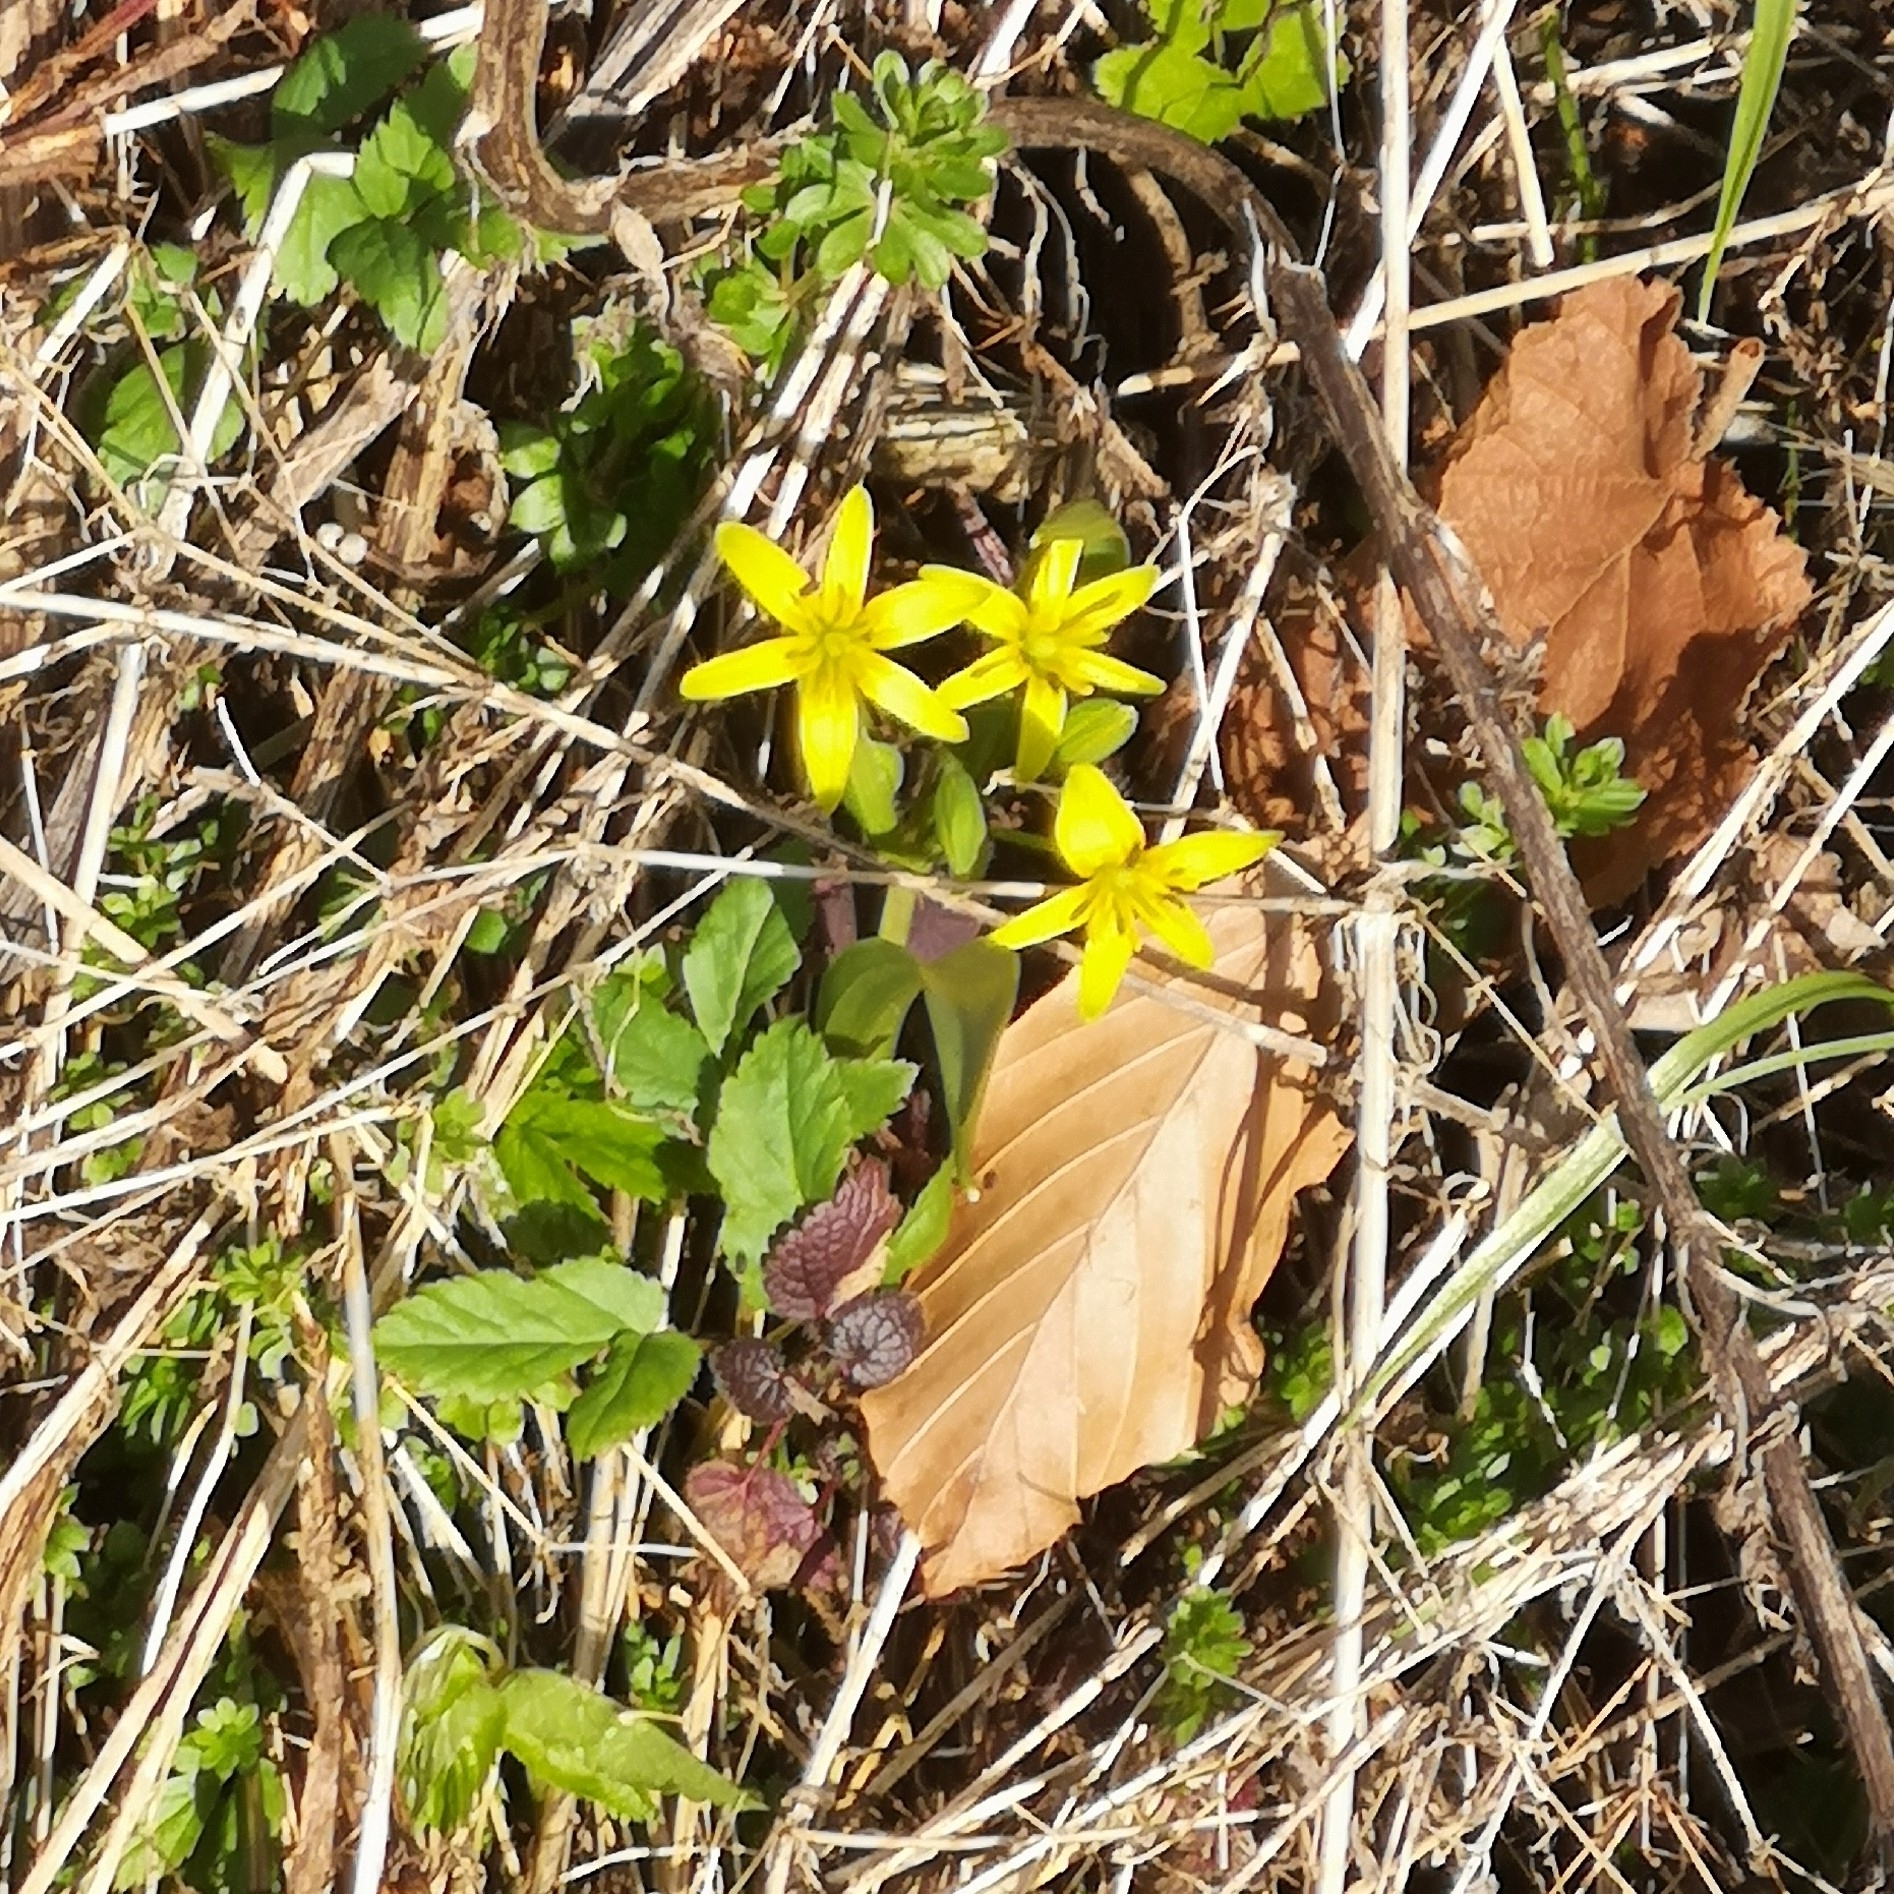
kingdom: Plantae
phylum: Tracheophyta
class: Liliopsida
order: Liliales
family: Liliaceae
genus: Gagea
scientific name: Gagea lutea
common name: Yellow star-of-bethlehem
